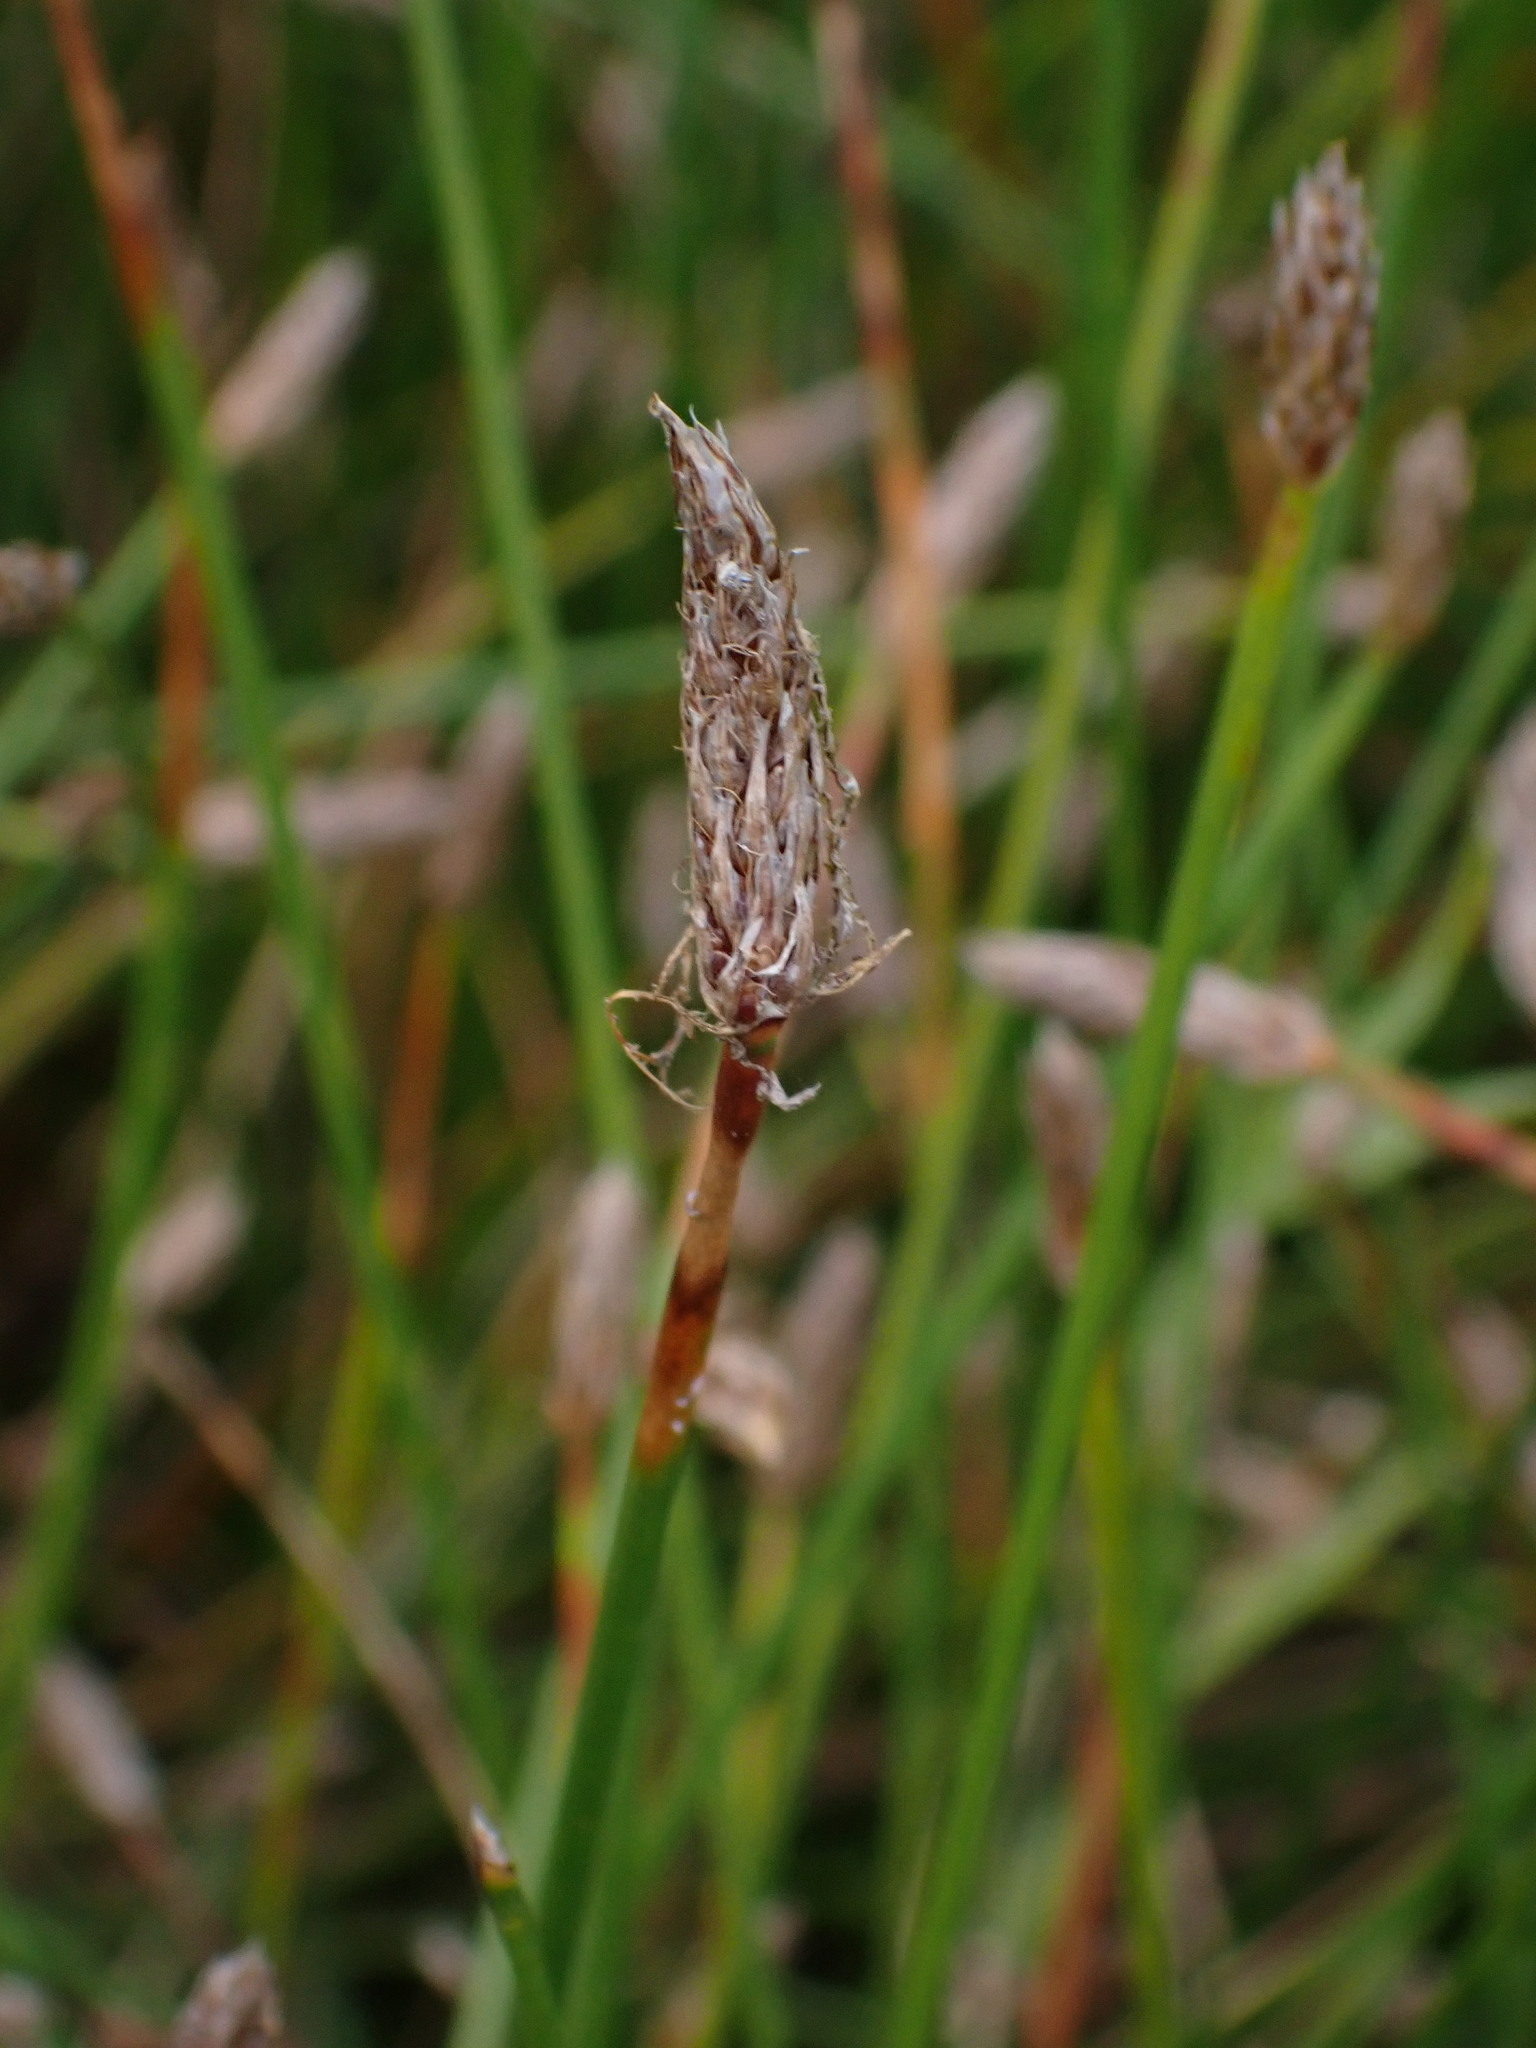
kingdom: Plantae
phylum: Tracheophyta
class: Liliopsida
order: Poales
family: Cyperaceae
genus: Eleocharis
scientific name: Eleocharis palustris
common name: Common spike-rush
